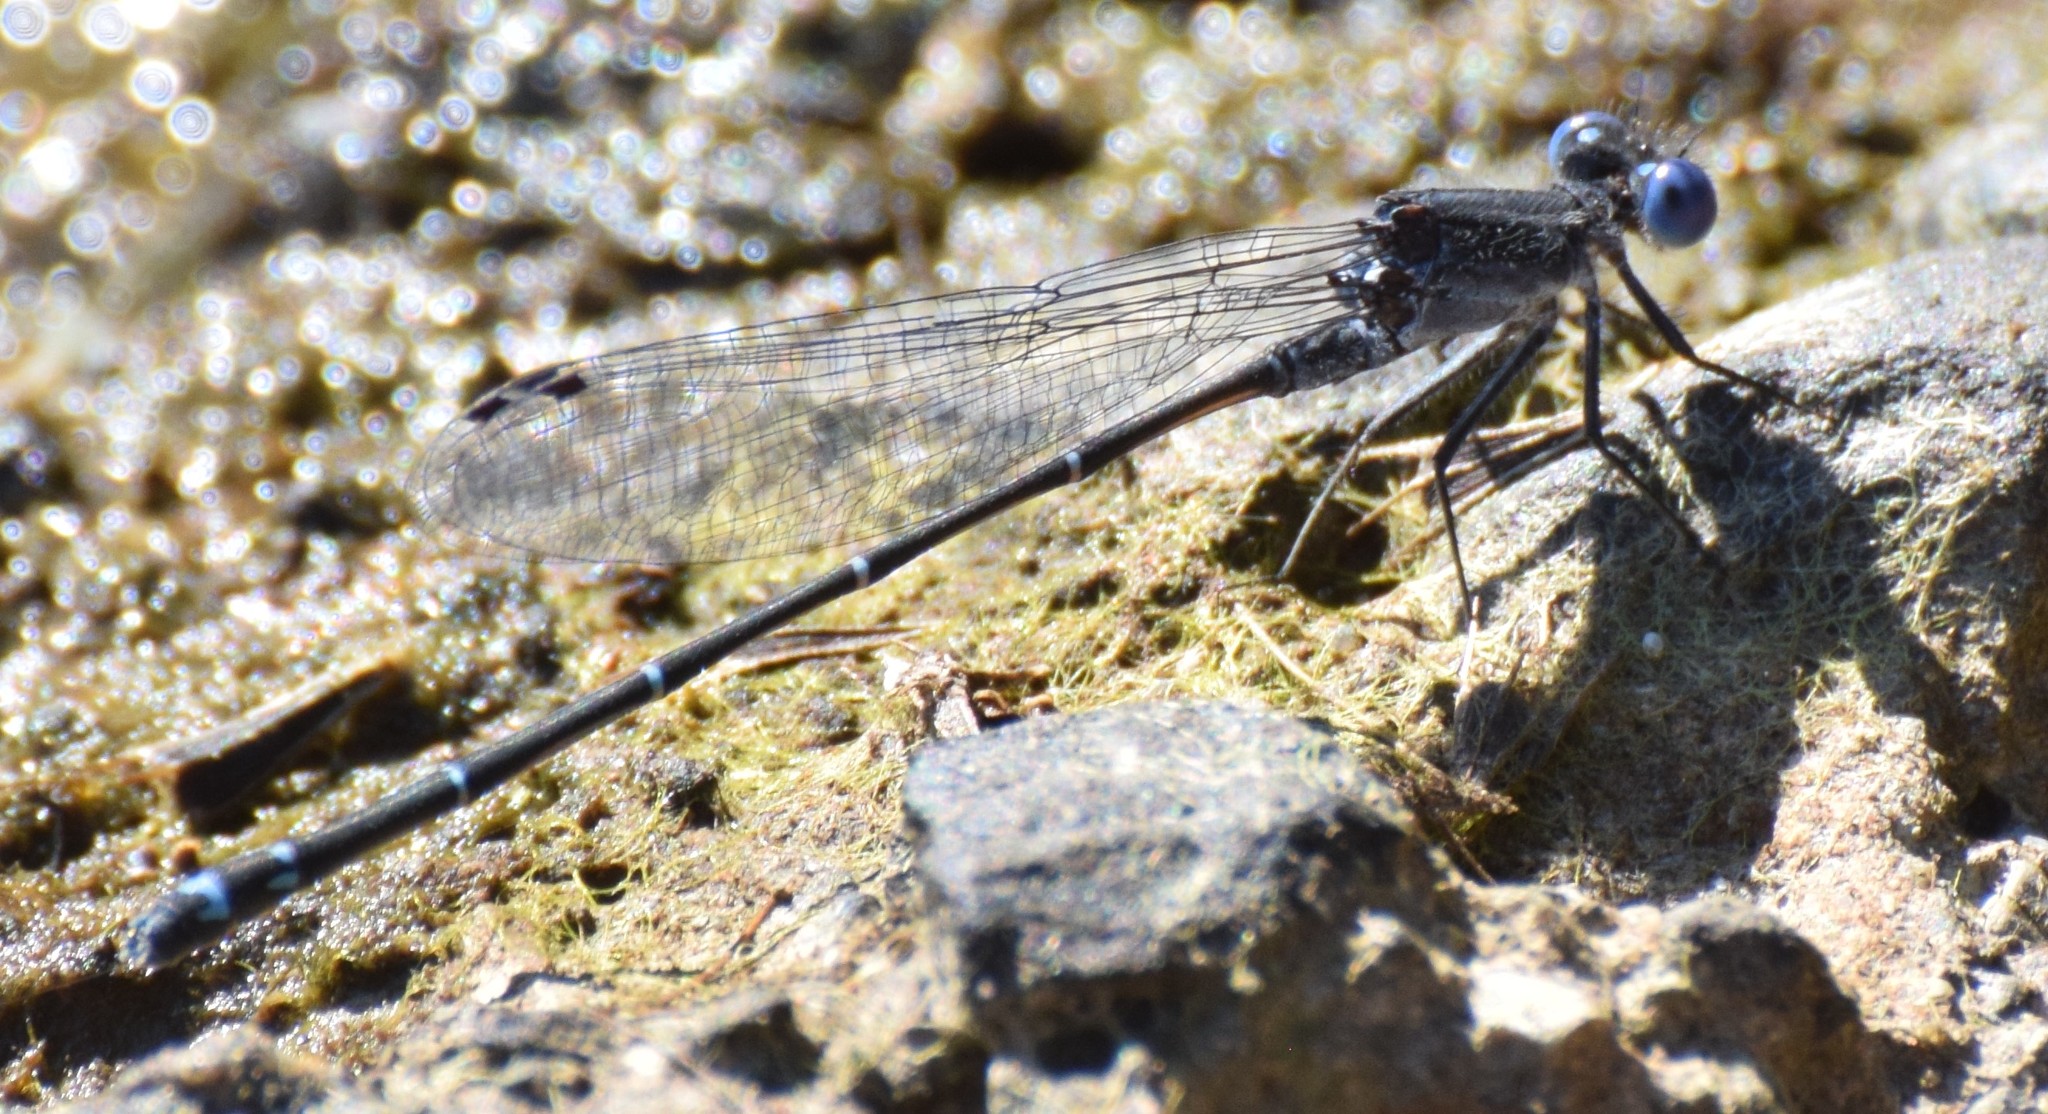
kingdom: Animalia
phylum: Arthropoda
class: Insecta
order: Odonata
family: Coenagrionidae
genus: Argia
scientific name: Argia translata
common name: Dusky dancer
